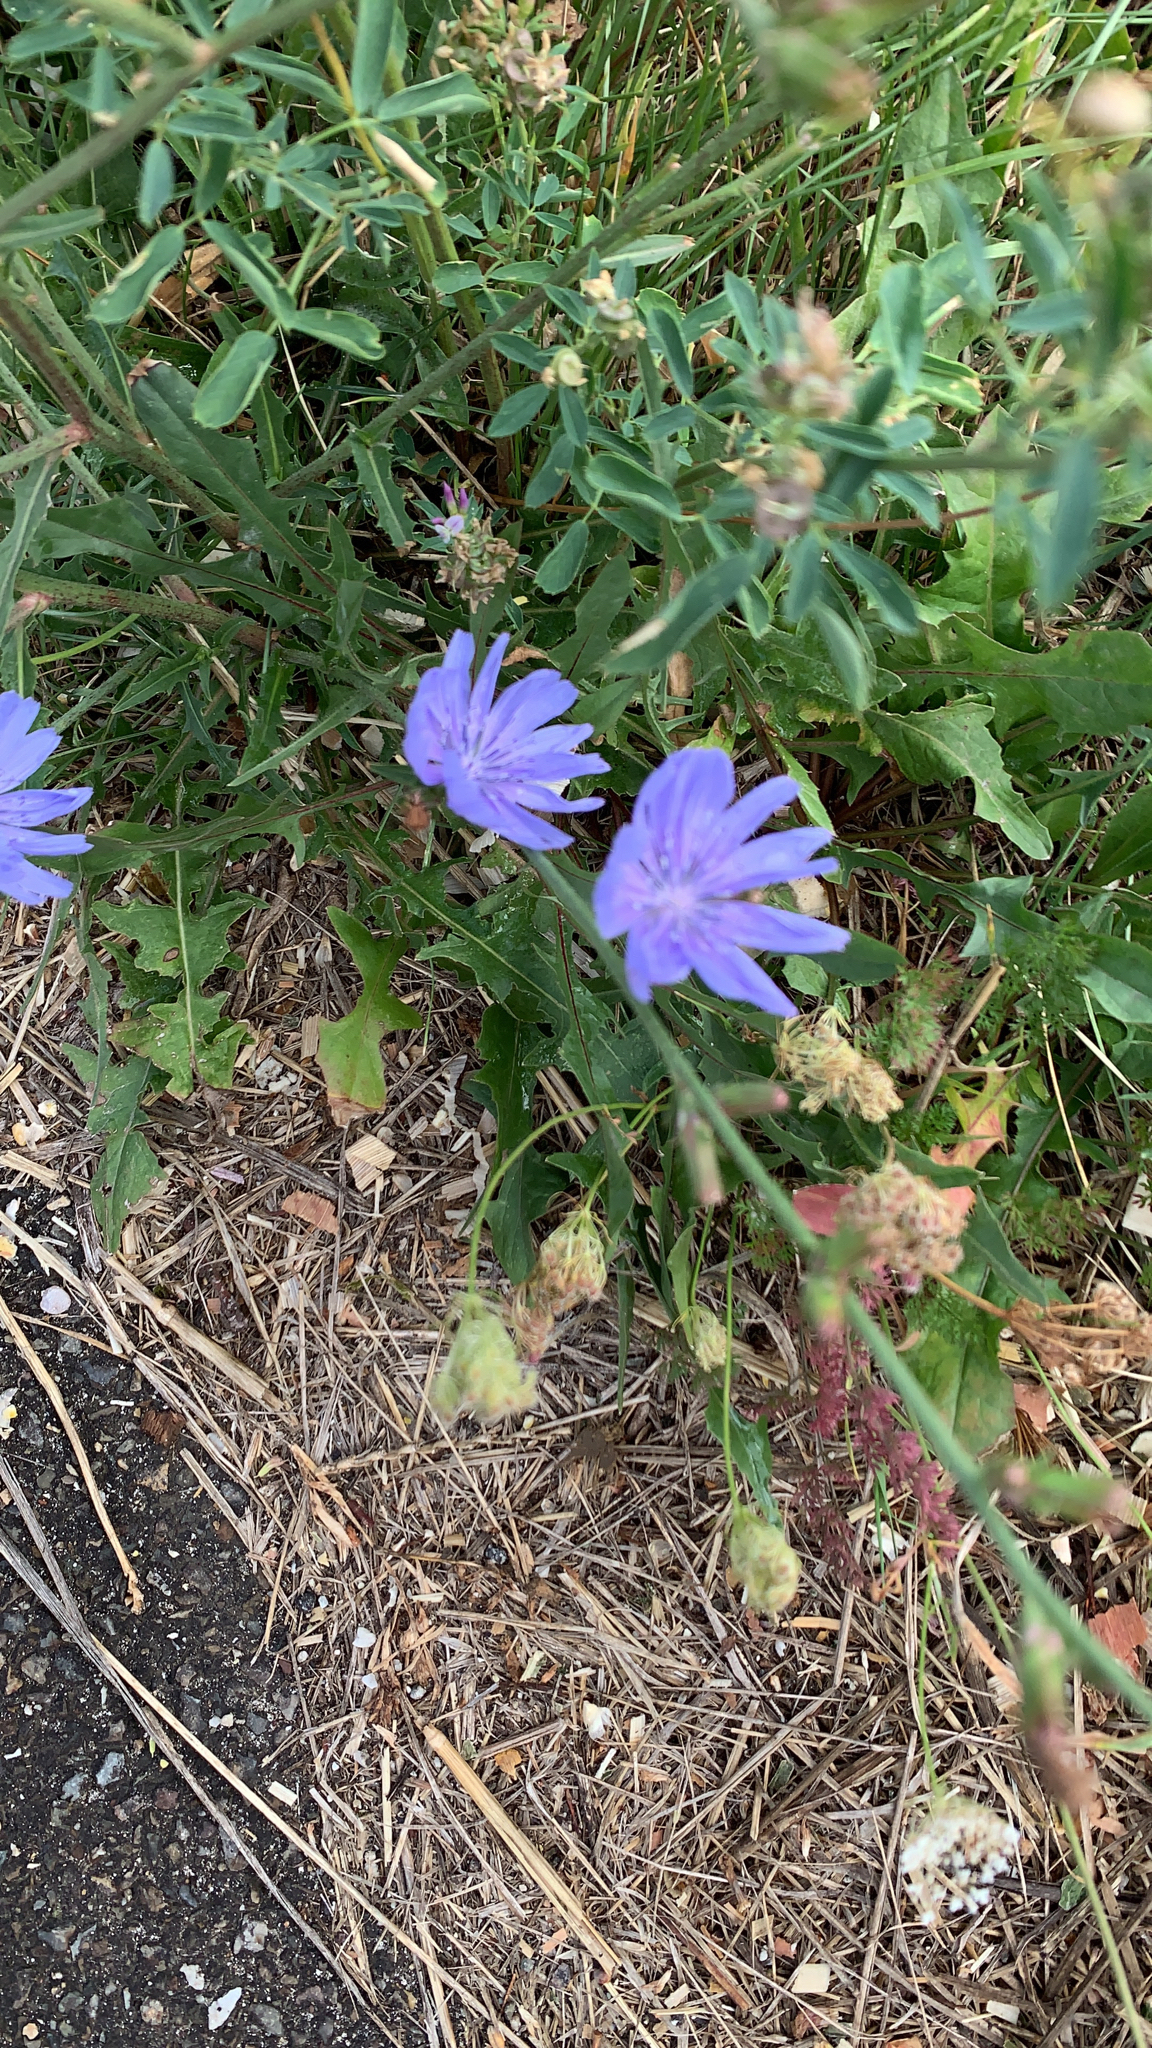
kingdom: Plantae
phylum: Tracheophyta
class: Magnoliopsida
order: Asterales
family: Asteraceae
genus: Cichorium
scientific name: Cichorium intybus
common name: Chicory
